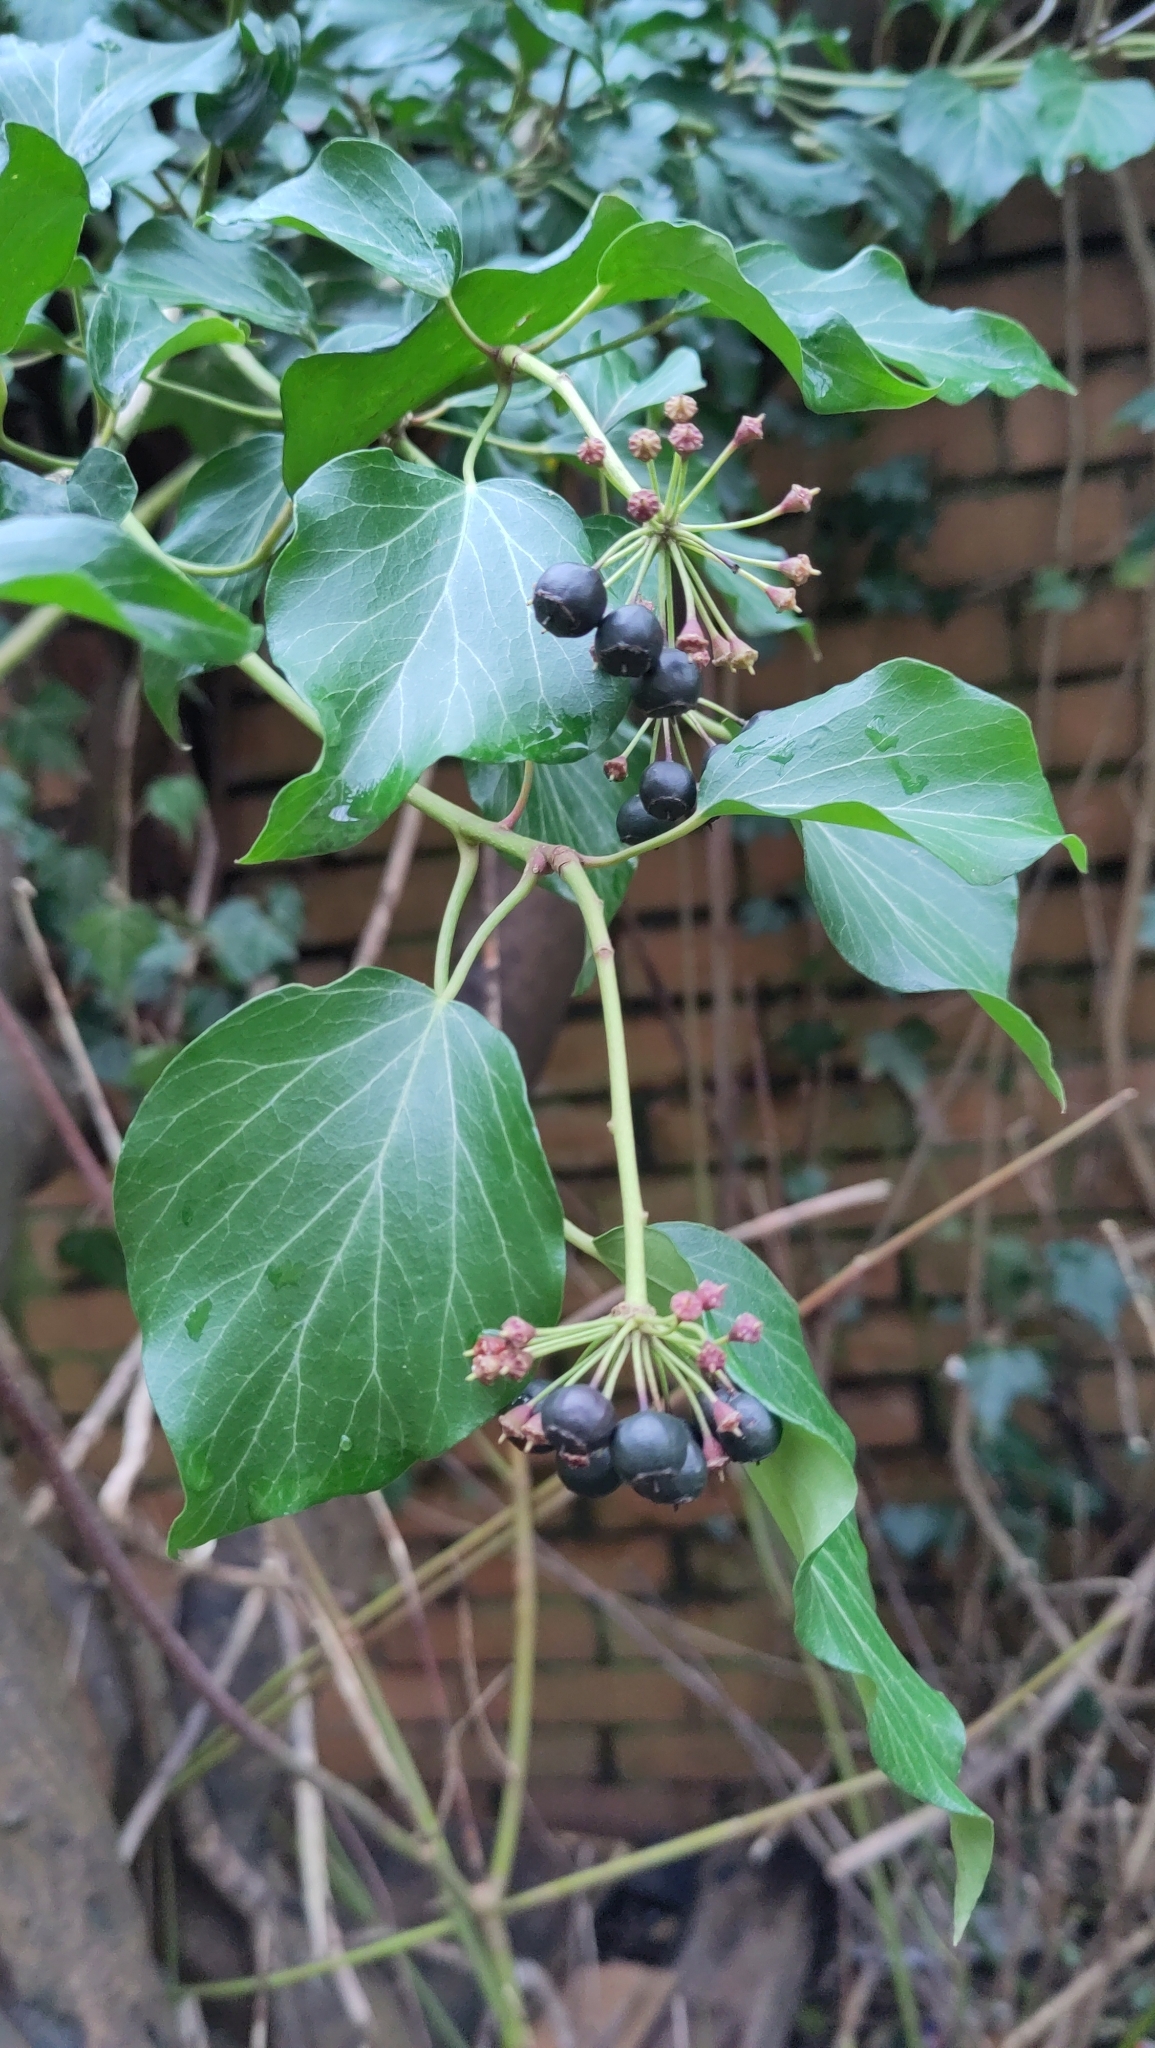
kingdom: Plantae
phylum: Tracheophyta
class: Magnoliopsida
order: Apiales
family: Araliaceae
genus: Hedera
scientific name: Hedera helix
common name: Ivy
